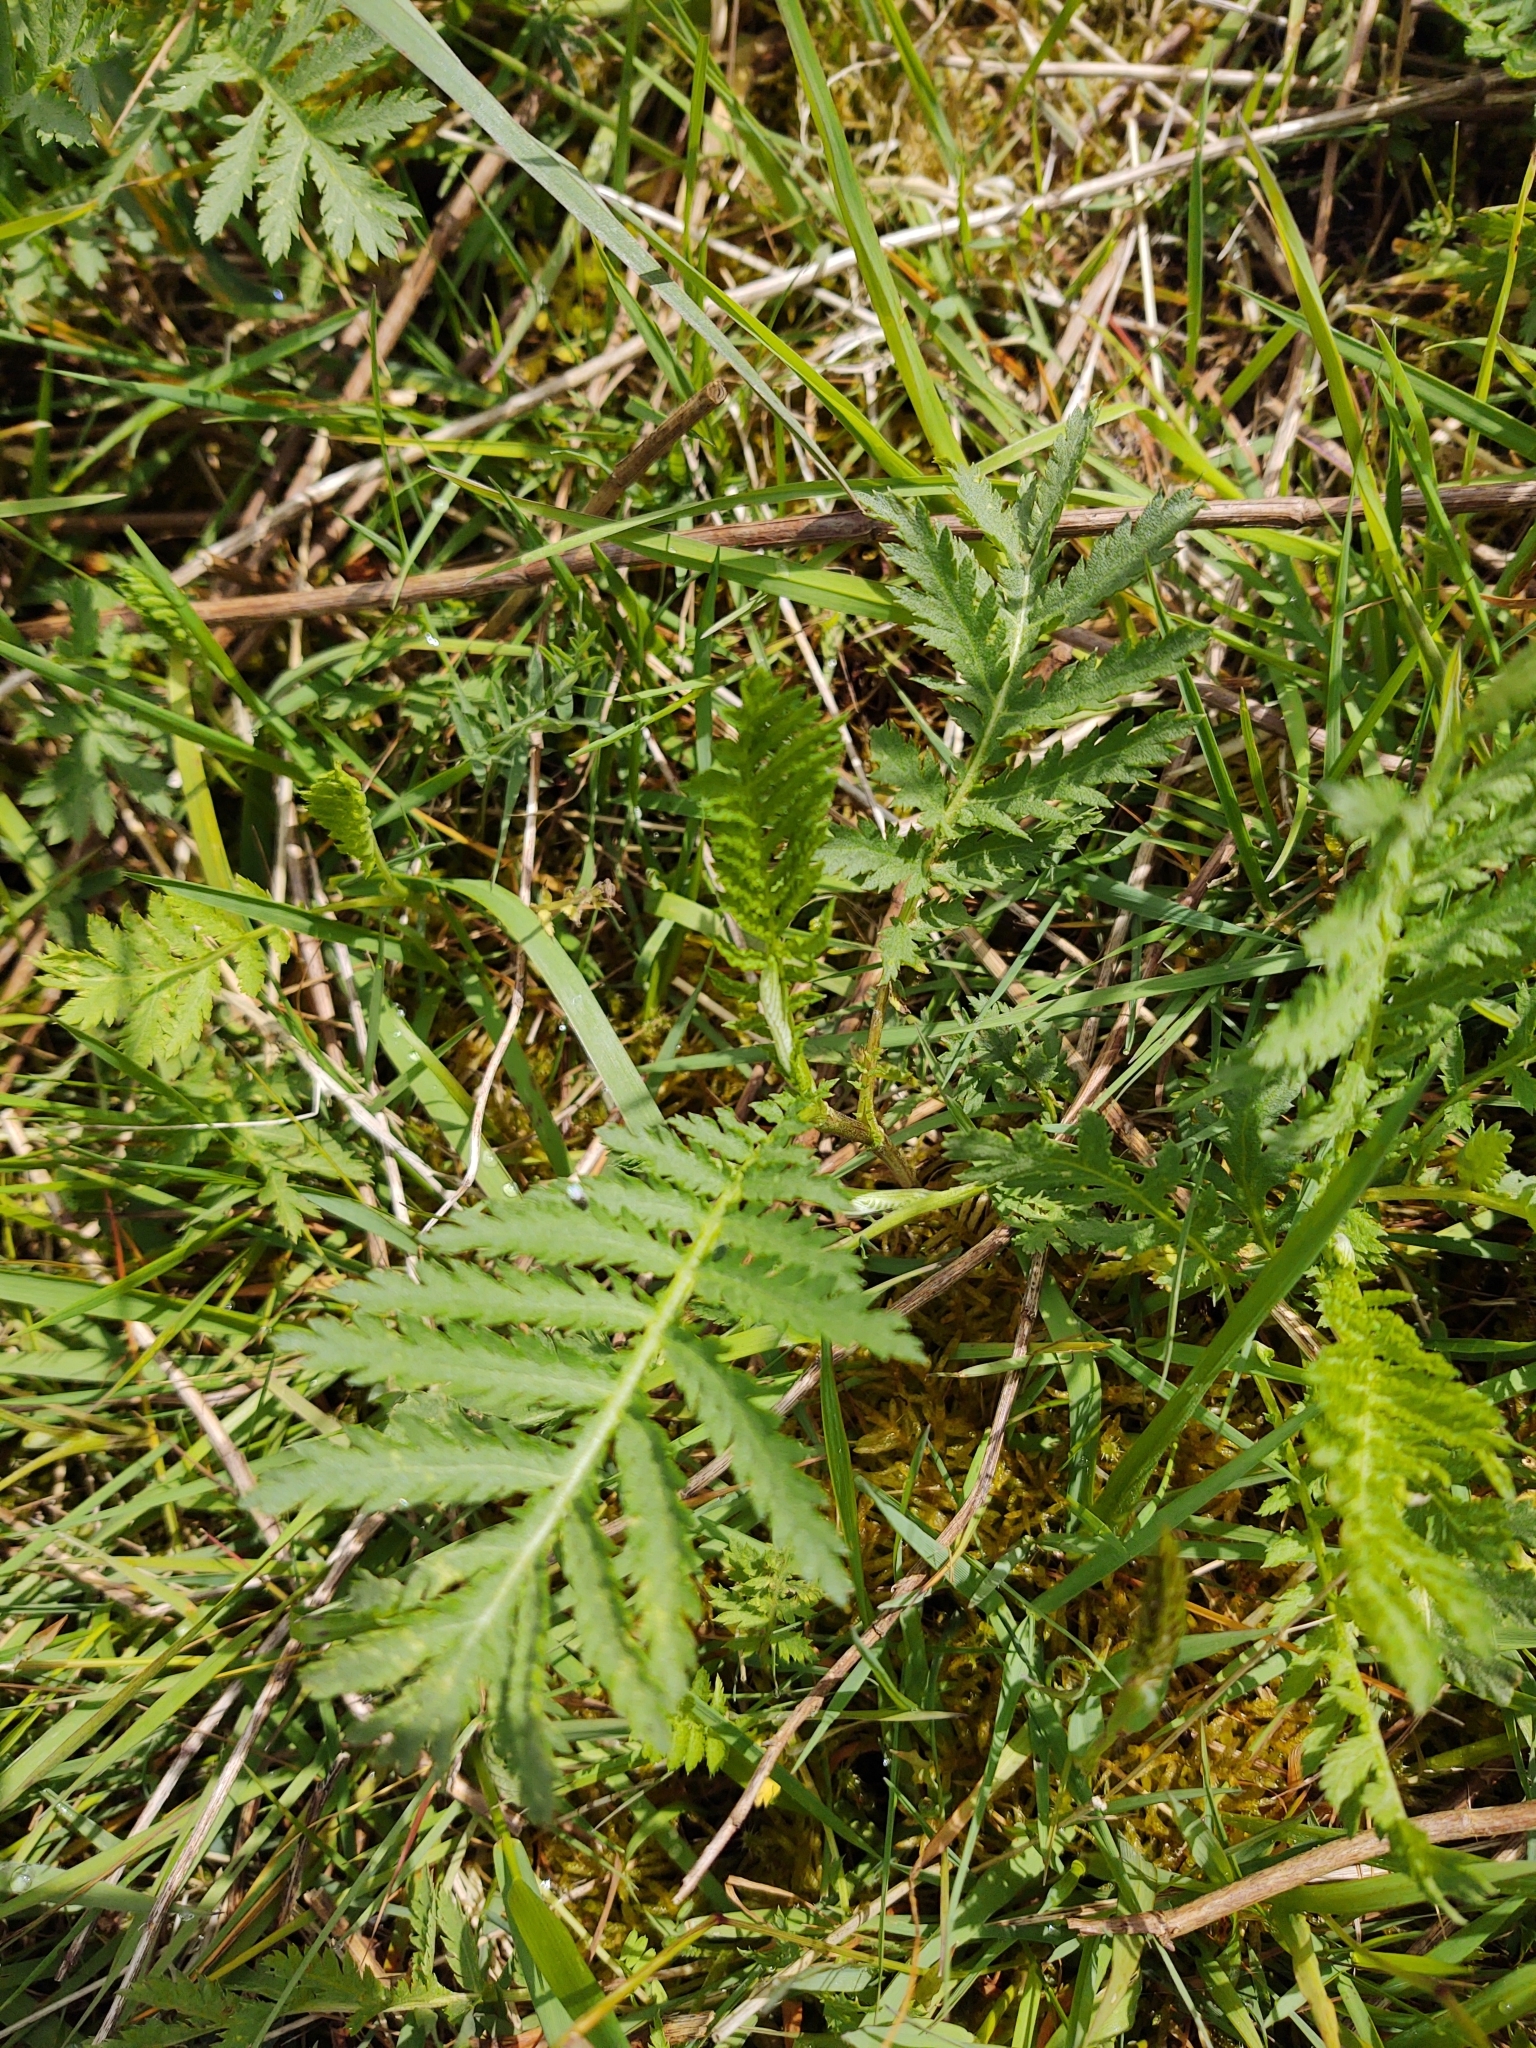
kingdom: Plantae
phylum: Tracheophyta
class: Magnoliopsida
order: Asterales
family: Asteraceae
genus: Tanacetum
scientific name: Tanacetum vulgare
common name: Common tansy
